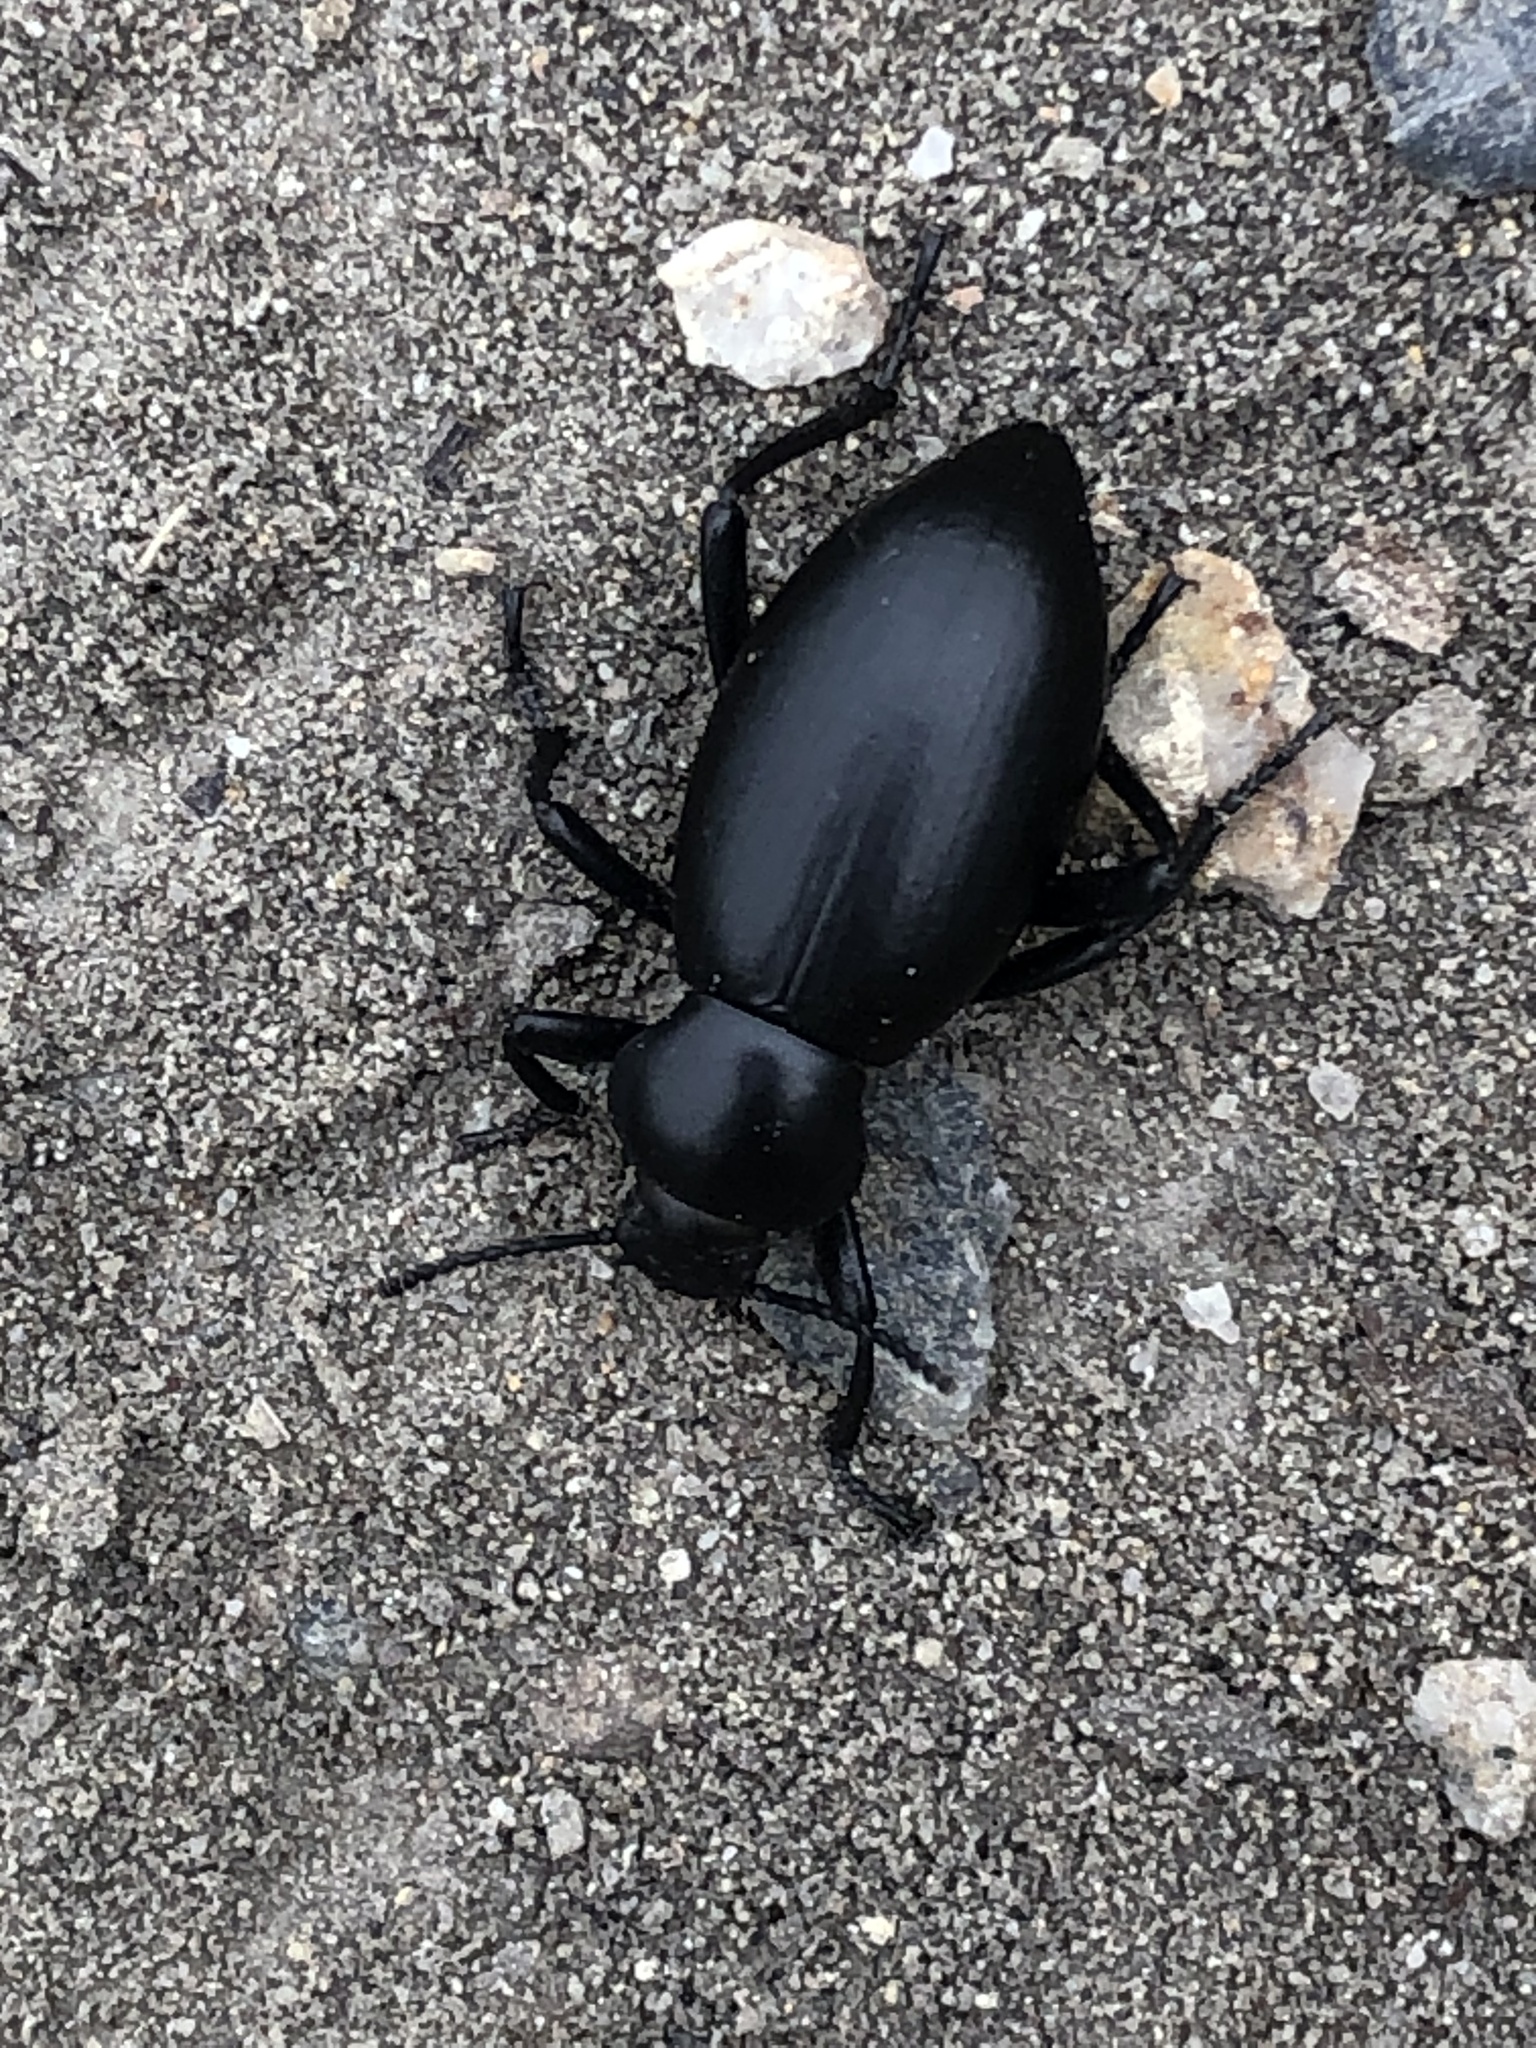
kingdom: Animalia
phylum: Arthropoda
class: Insecta
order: Coleoptera
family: Tenebrionidae
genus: Eleodes
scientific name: Eleodes dentipes
